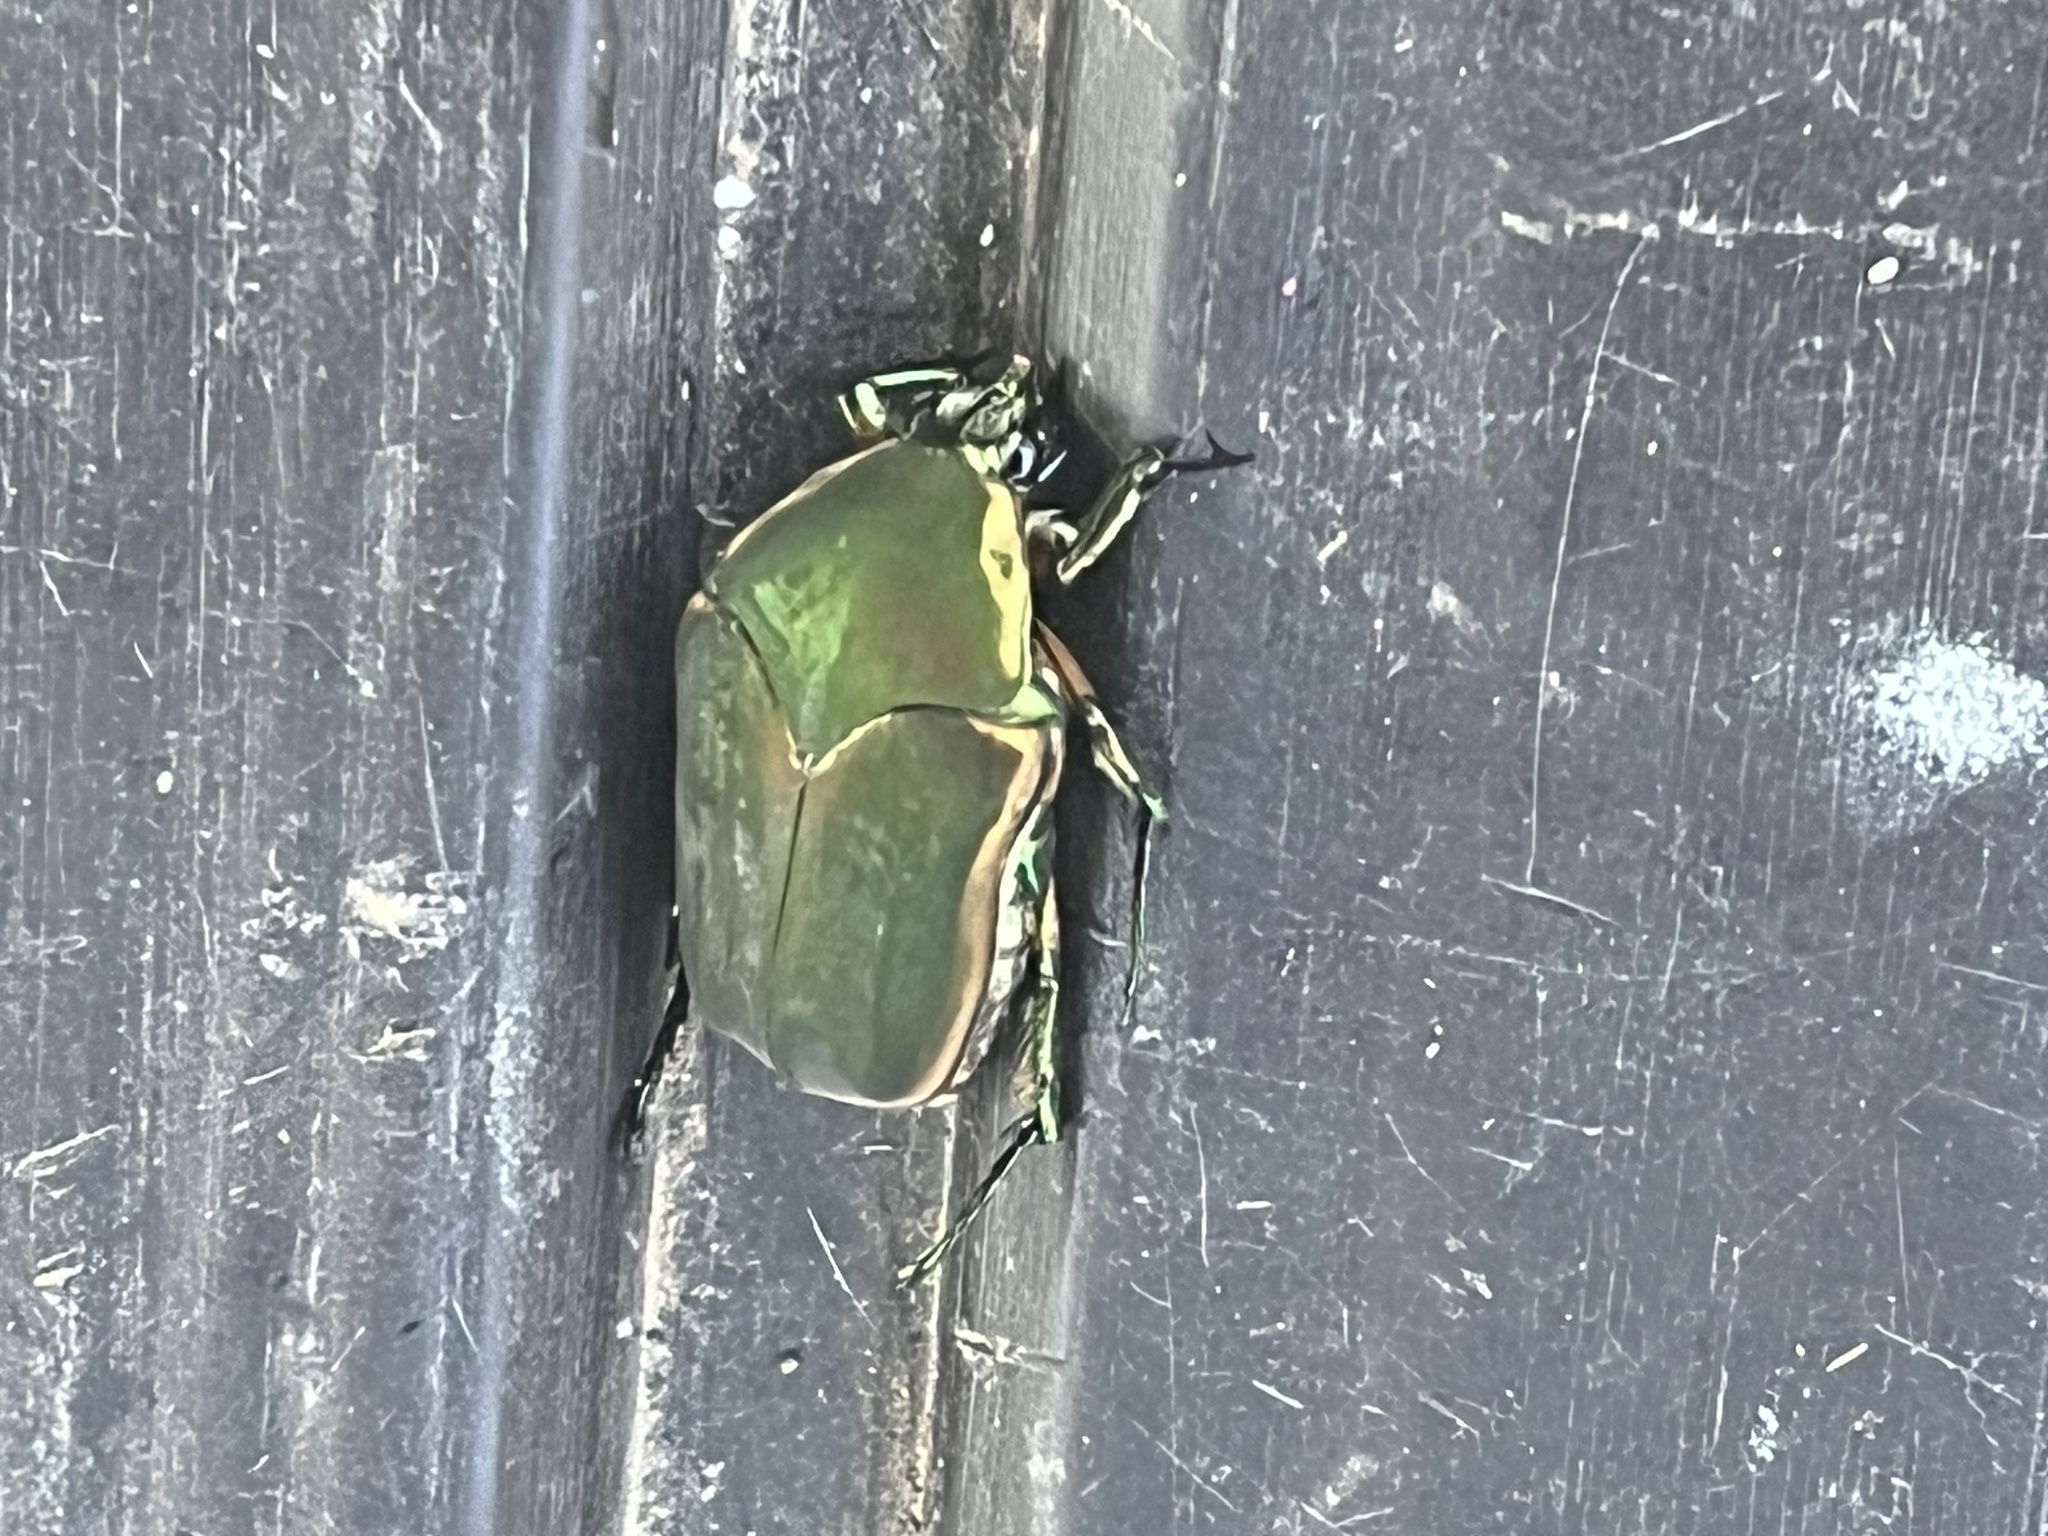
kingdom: Animalia
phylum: Arthropoda
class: Insecta
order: Coleoptera
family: Scarabaeidae
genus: Cotinis
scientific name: Cotinis nitida
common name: Common green june beetle
